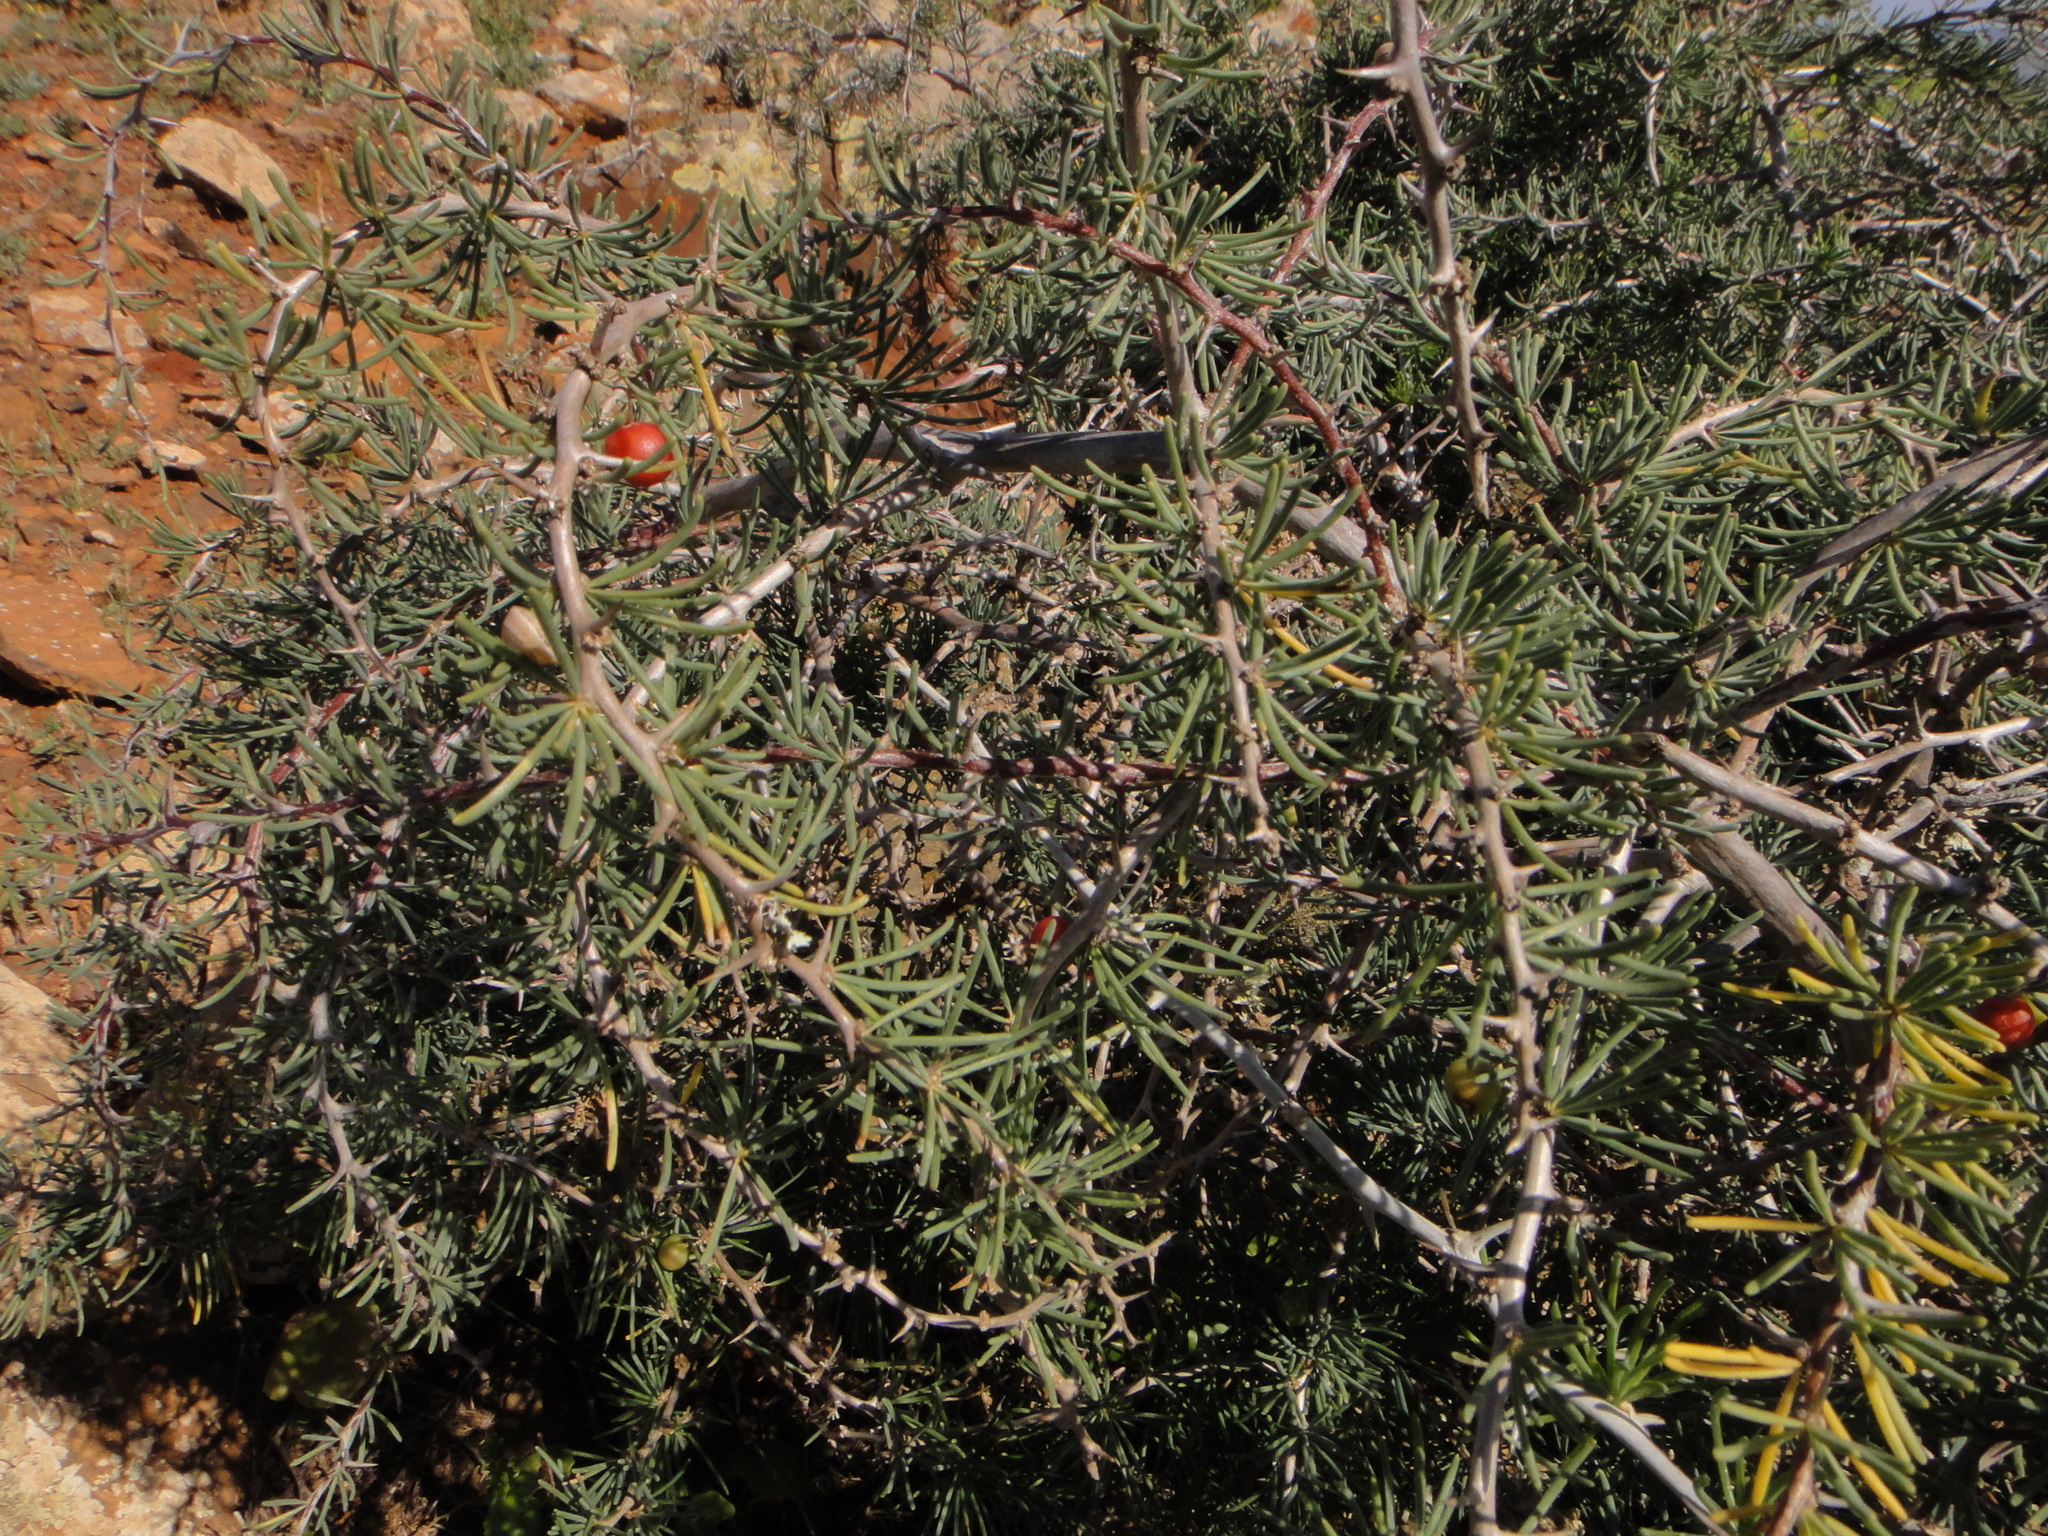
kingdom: Plantae
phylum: Tracheophyta
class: Liliopsida
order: Asparagales
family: Asparagaceae
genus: Asparagus
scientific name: Asparagus pastorianus
